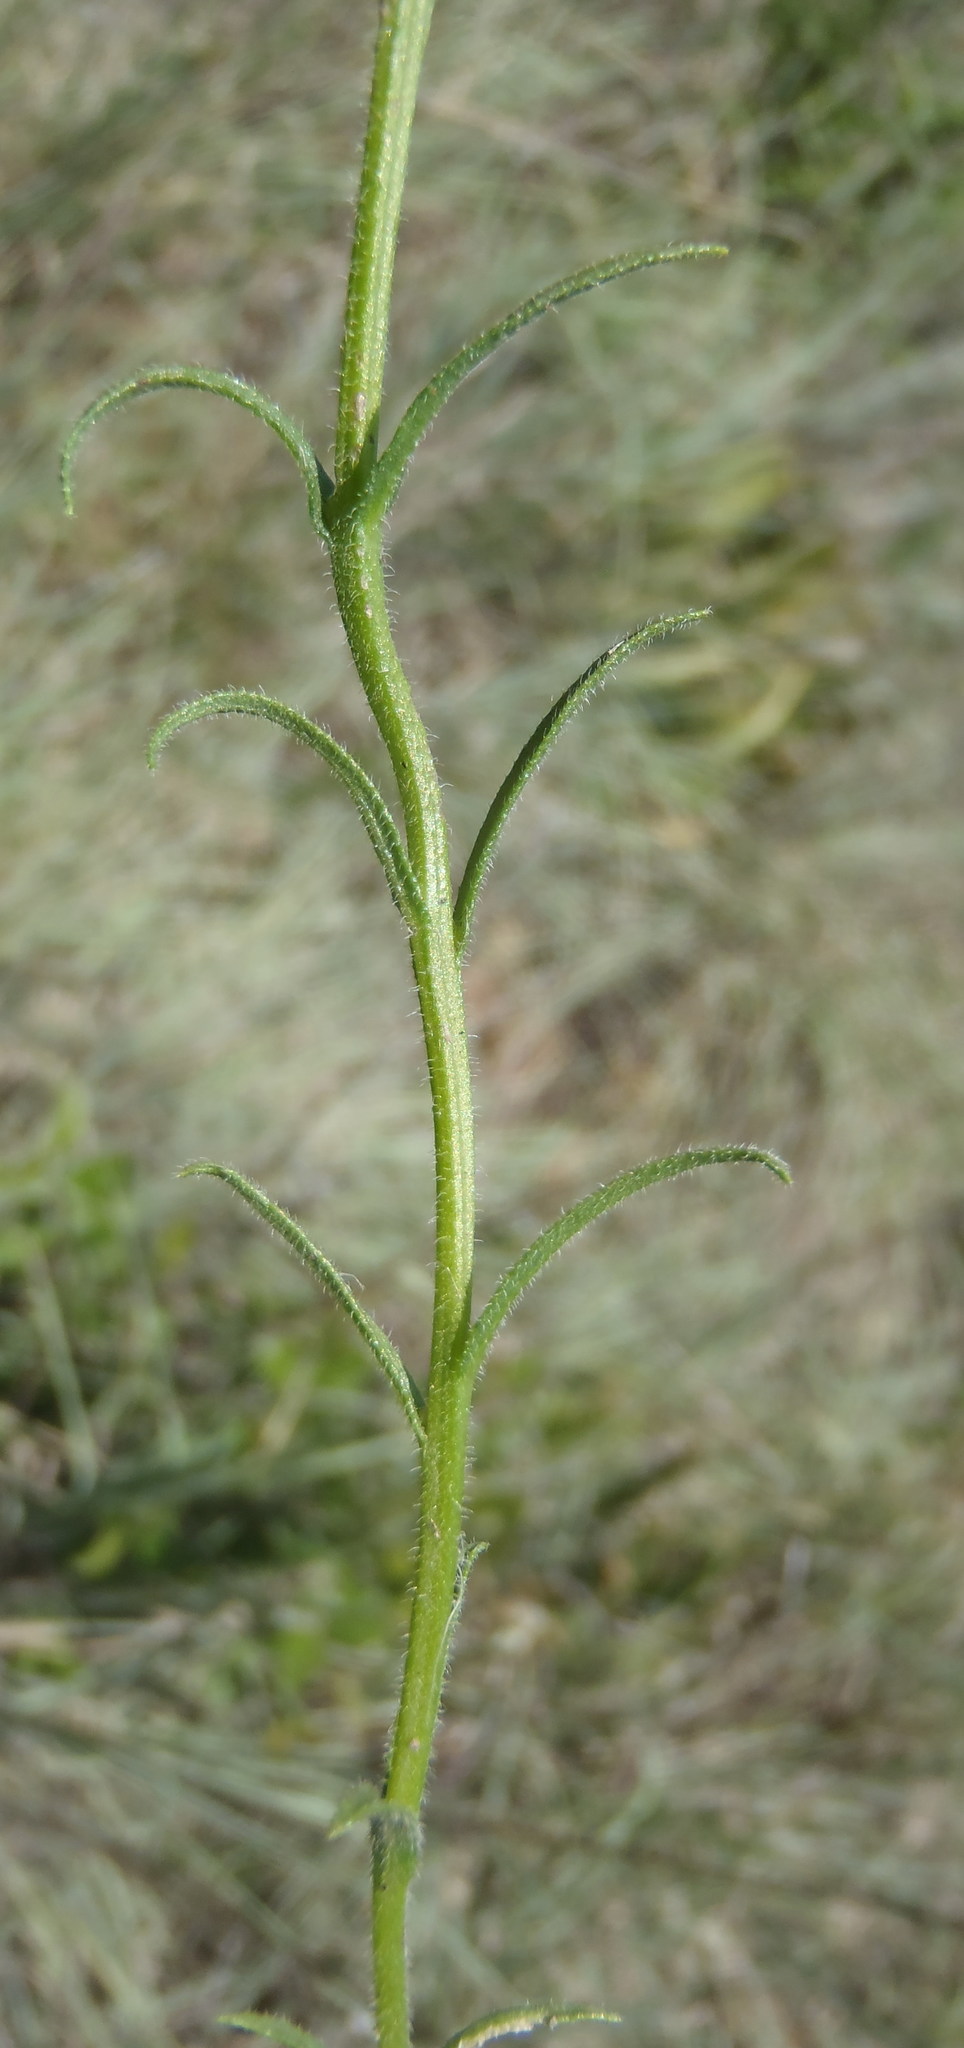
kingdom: Plantae
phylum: Tracheophyta
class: Magnoliopsida
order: Lamiales
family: Orobanchaceae
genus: Striga
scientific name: Striga bilabiata
